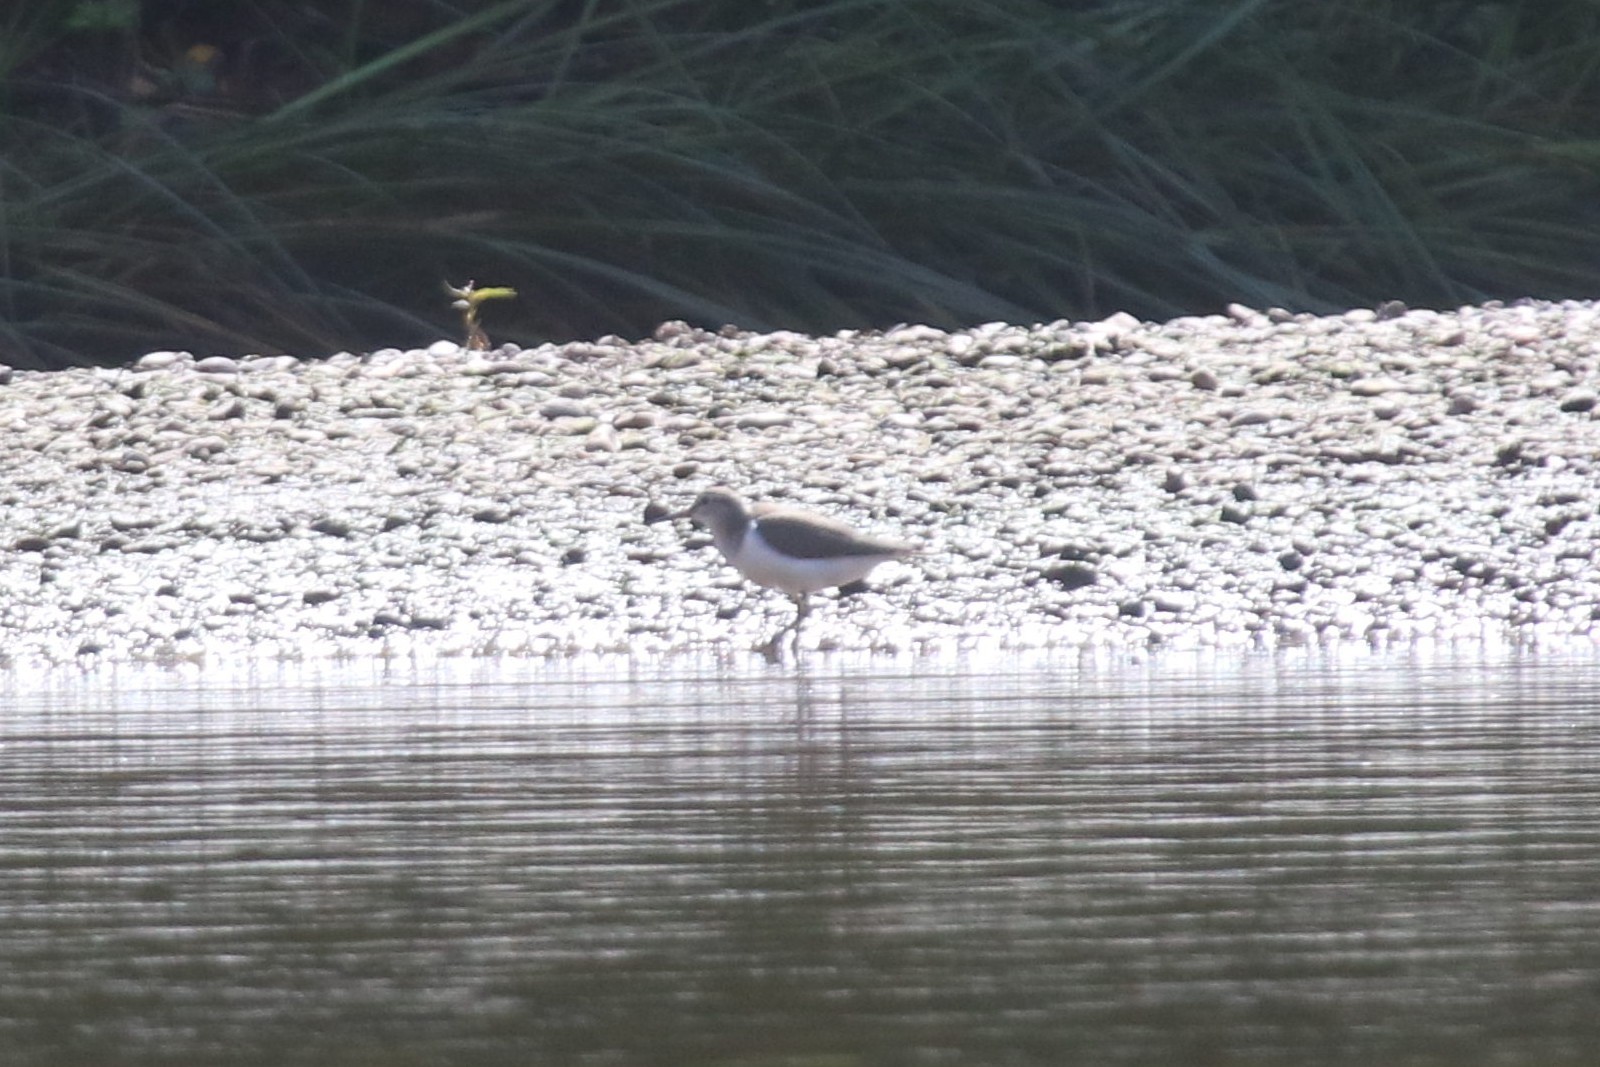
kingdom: Animalia
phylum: Chordata
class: Aves
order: Charadriiformes
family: Scolopacidae
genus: Actitis
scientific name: Actitis hypoleucos
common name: Common sandpiper
